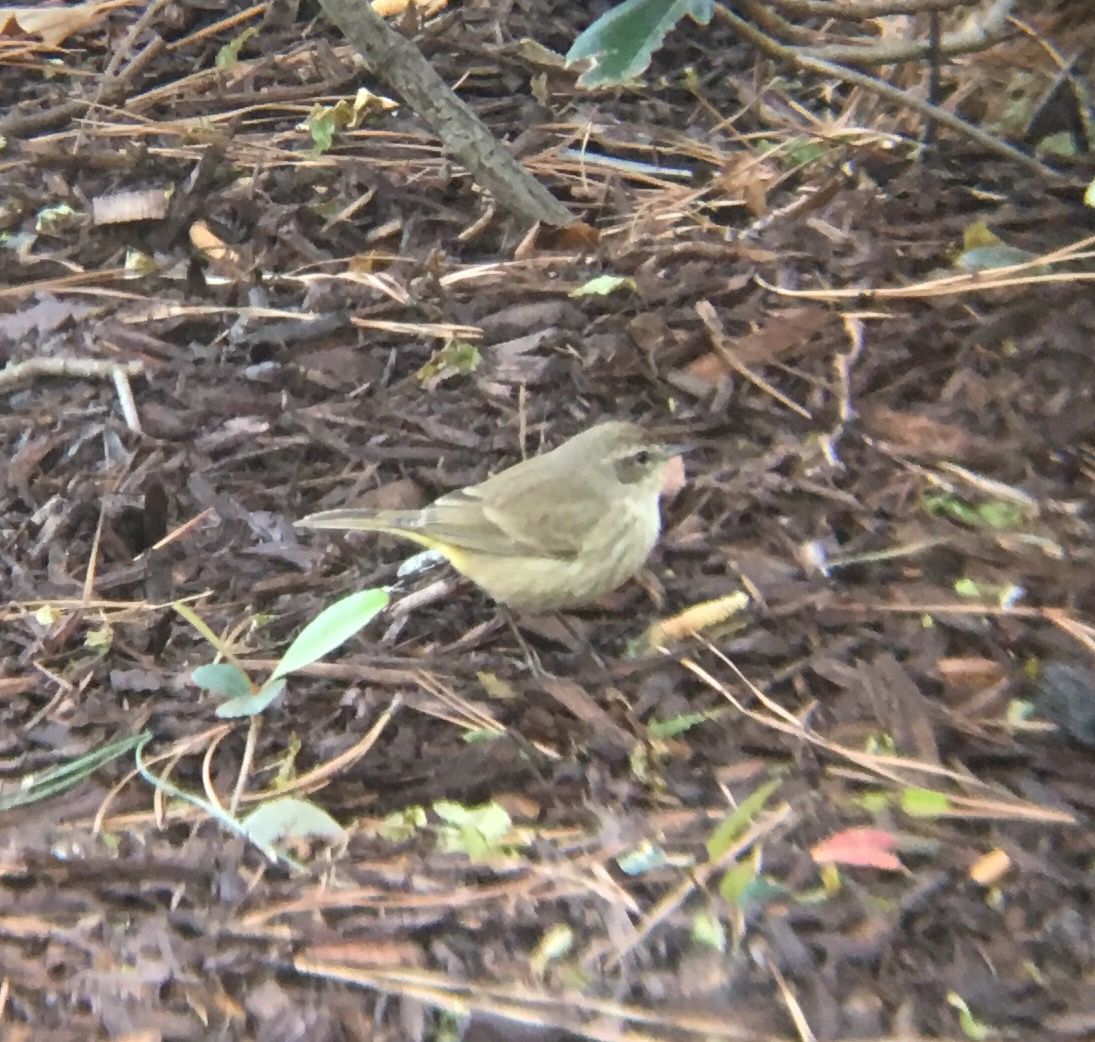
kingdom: Animalia
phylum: Chordata
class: Aves
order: Passeriformes
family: Parulidae
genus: Setophaga
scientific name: Setophaga palmarum
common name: Palm warbler
